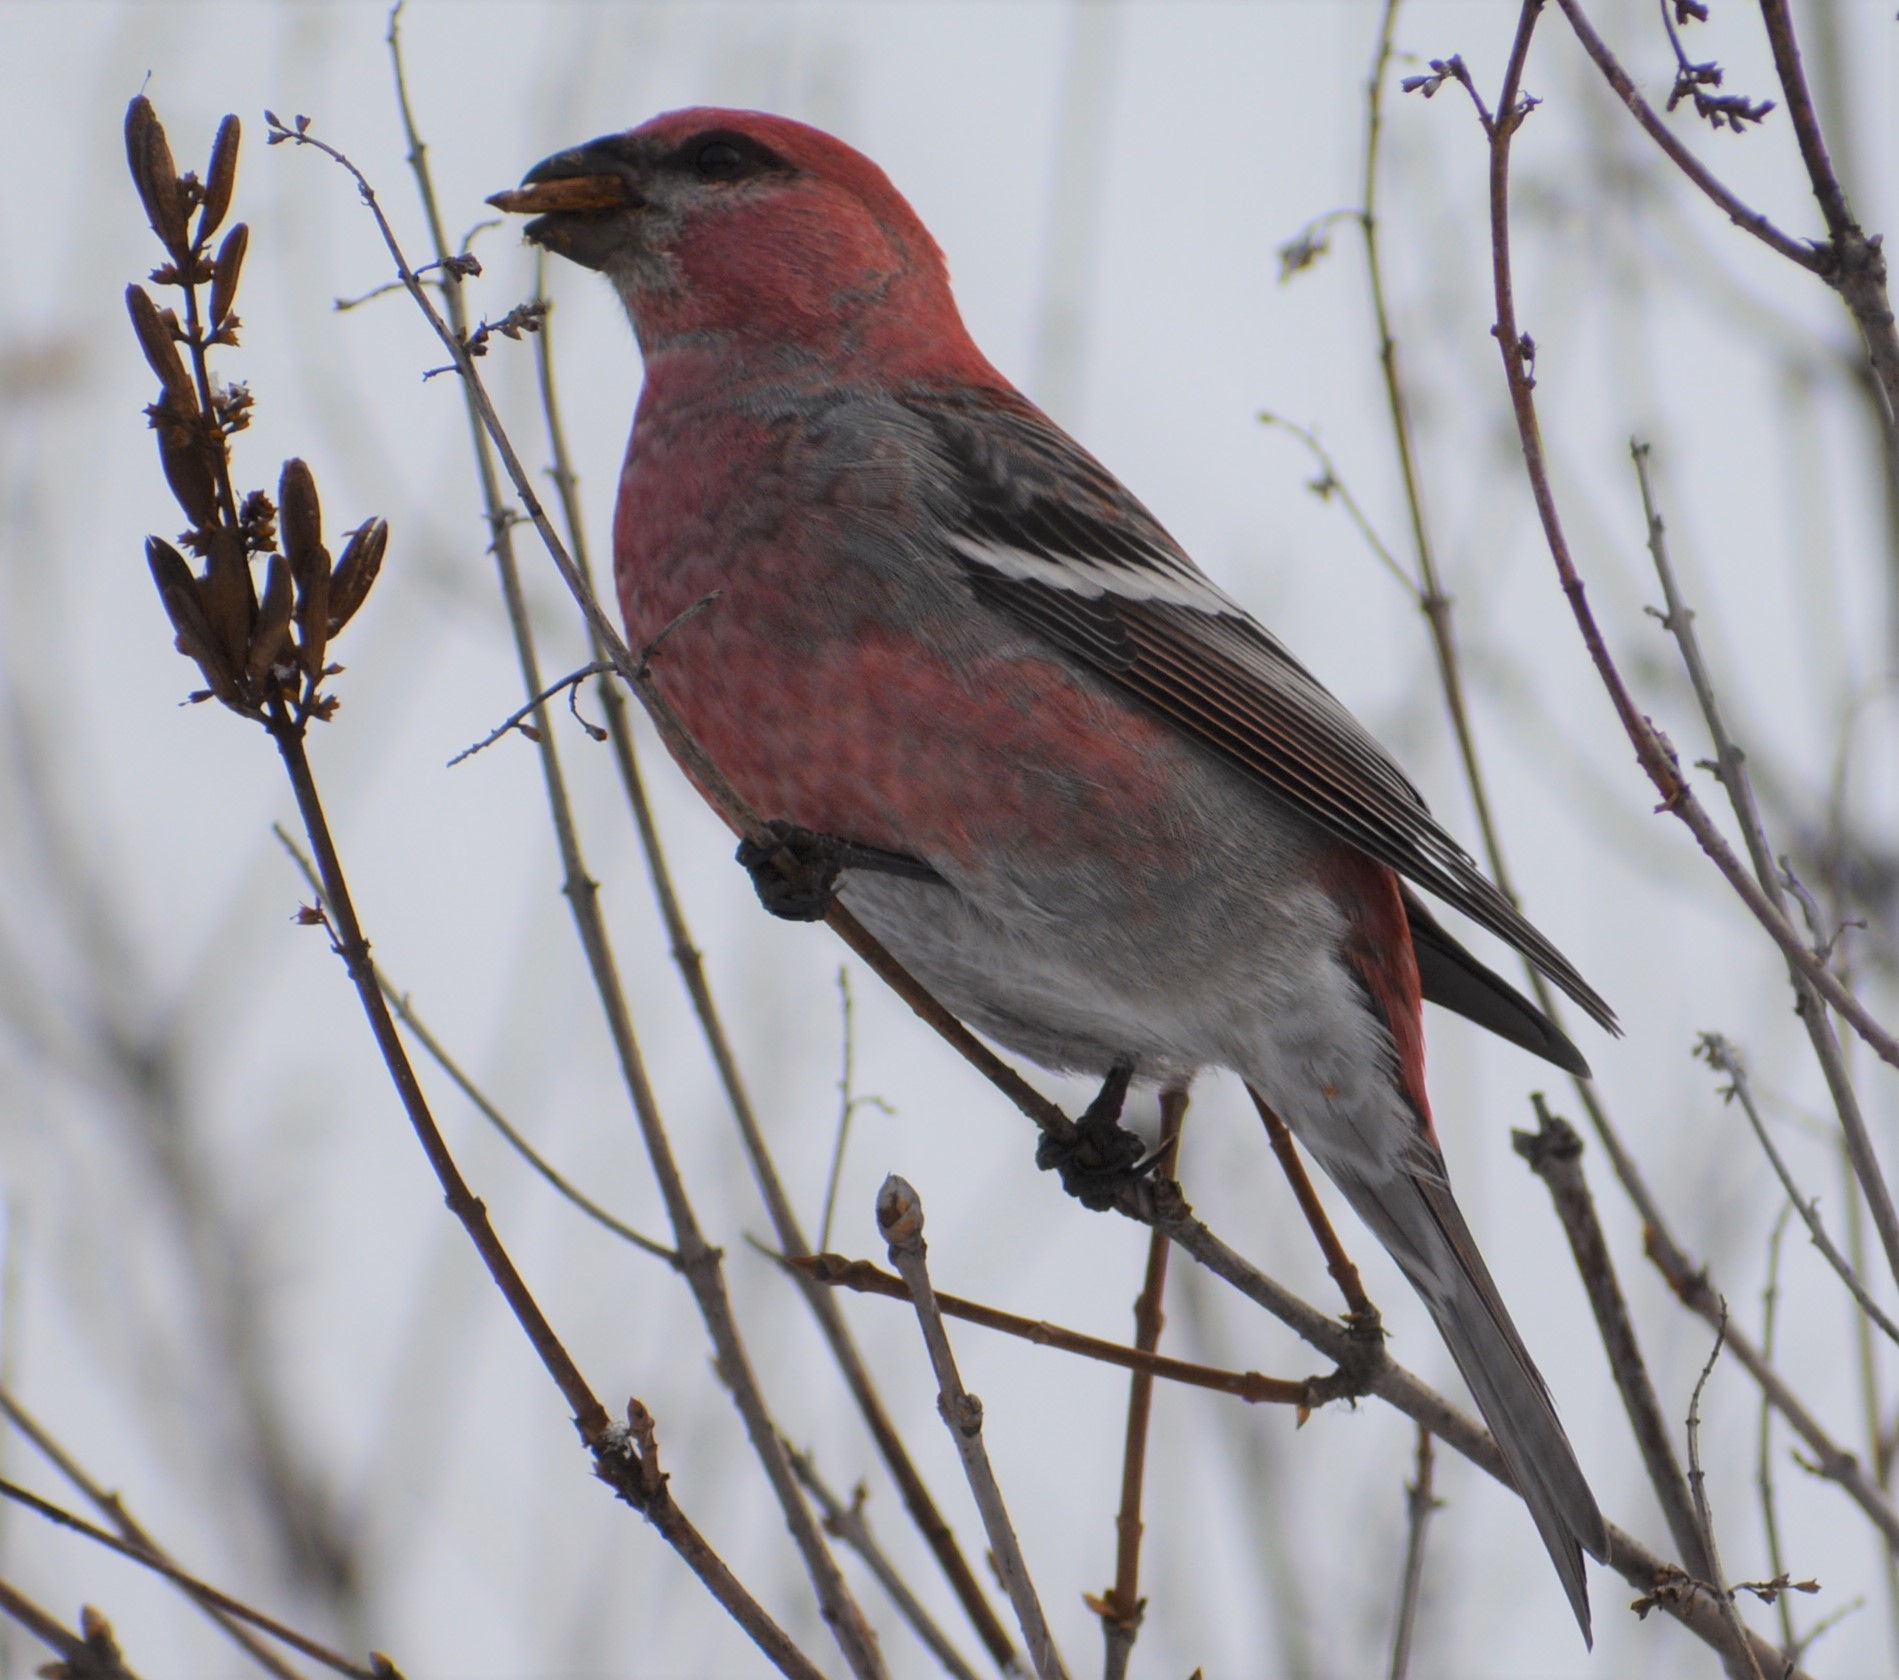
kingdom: Animalia
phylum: Chordata
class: Aves
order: Passeriformes
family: Fringillidae
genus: Pinicola
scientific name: Pinicola enucleator
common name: Pine grosbeak
